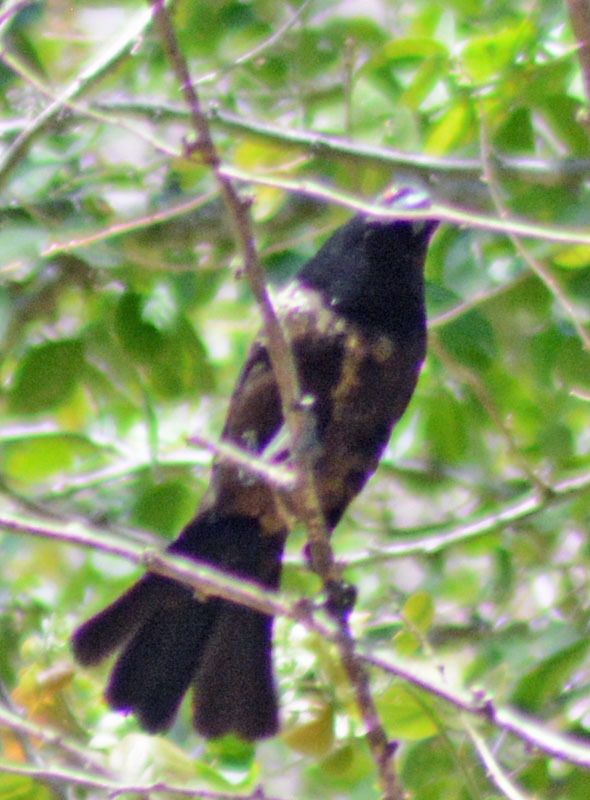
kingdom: Animalia
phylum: Chordata
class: Aves
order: Passeriformes
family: Icteridae
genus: Molothrus
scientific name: Molothrus aeneus
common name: Bronzed cowbird
